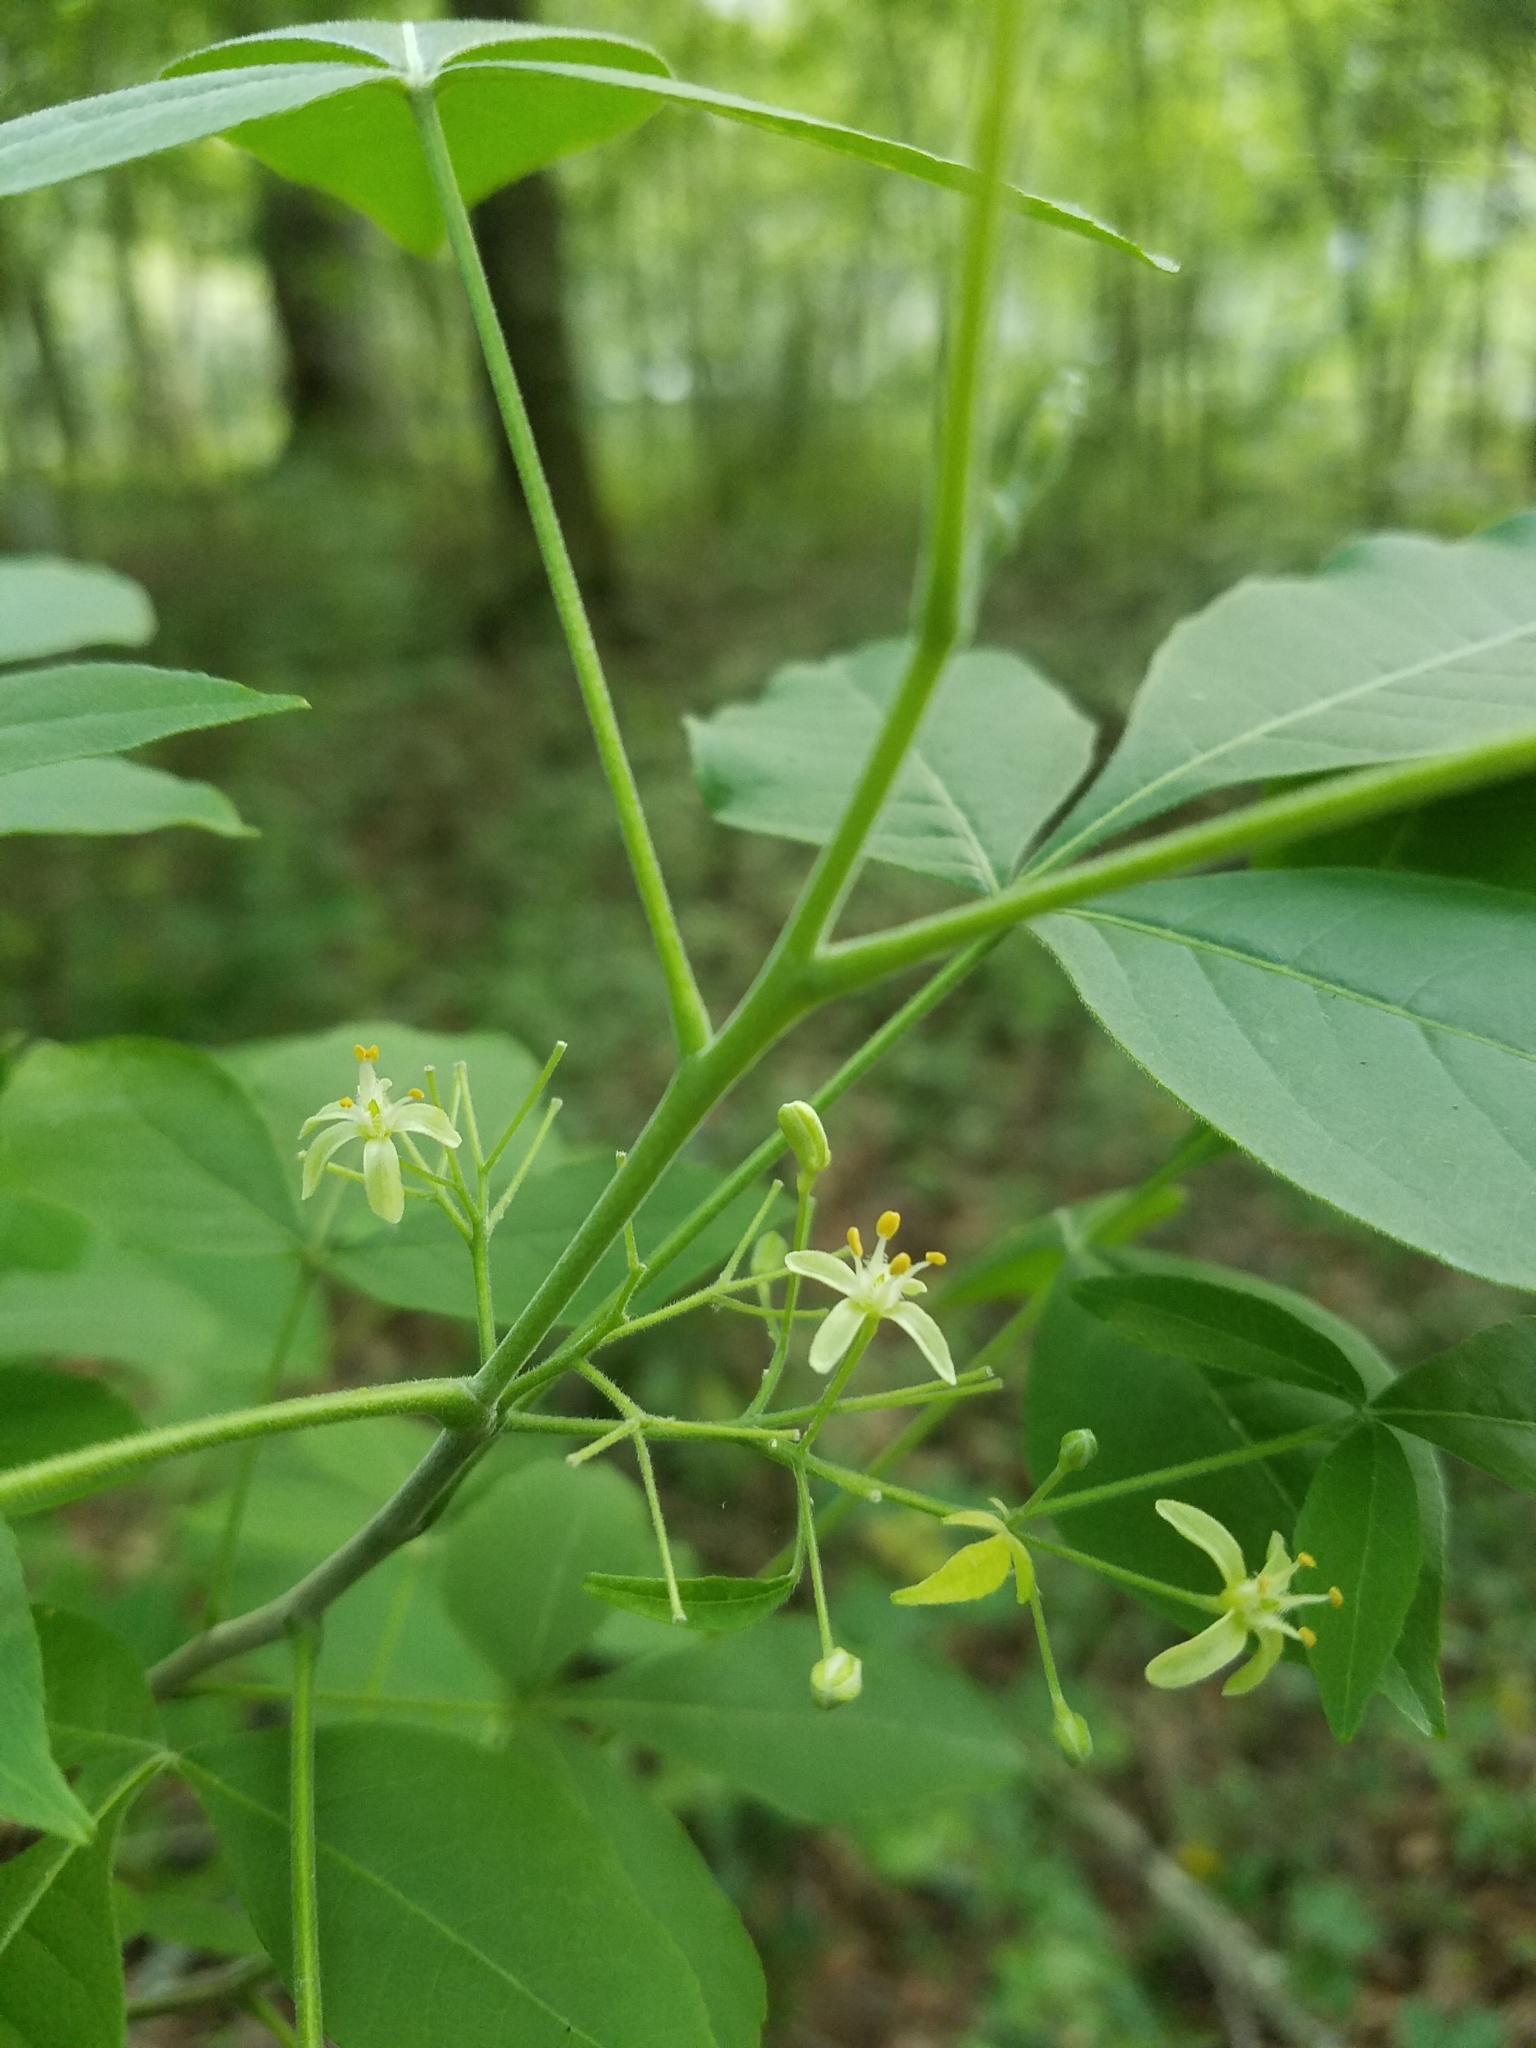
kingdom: Plantae
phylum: Tracheophyta
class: Magnoliopsida
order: Sapindales
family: Rutaceae
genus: Ptelea
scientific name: Ptelea trifoliata
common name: Common hop-tree
